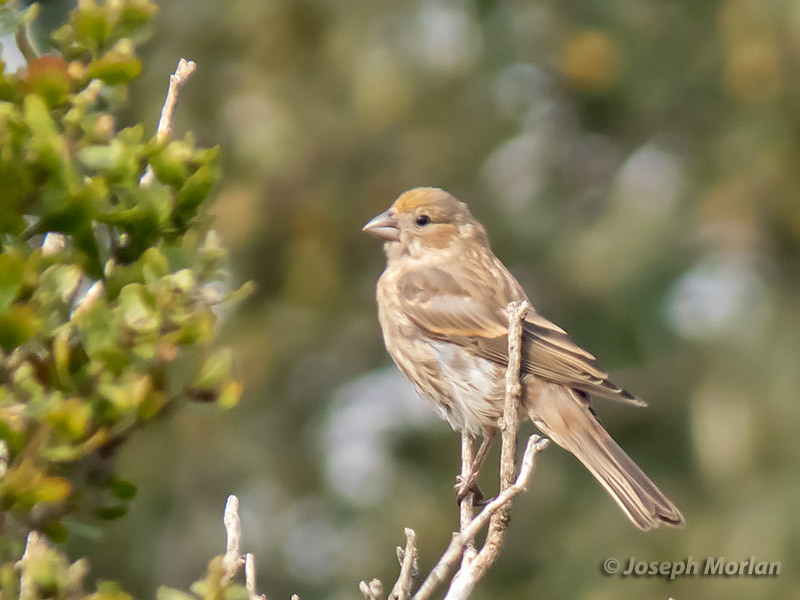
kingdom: Animalia
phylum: Chordata
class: Aves
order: Passeriformes
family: Fringillidae
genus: Haemorhous
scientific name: Haemorhous mexicanus
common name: House finch
